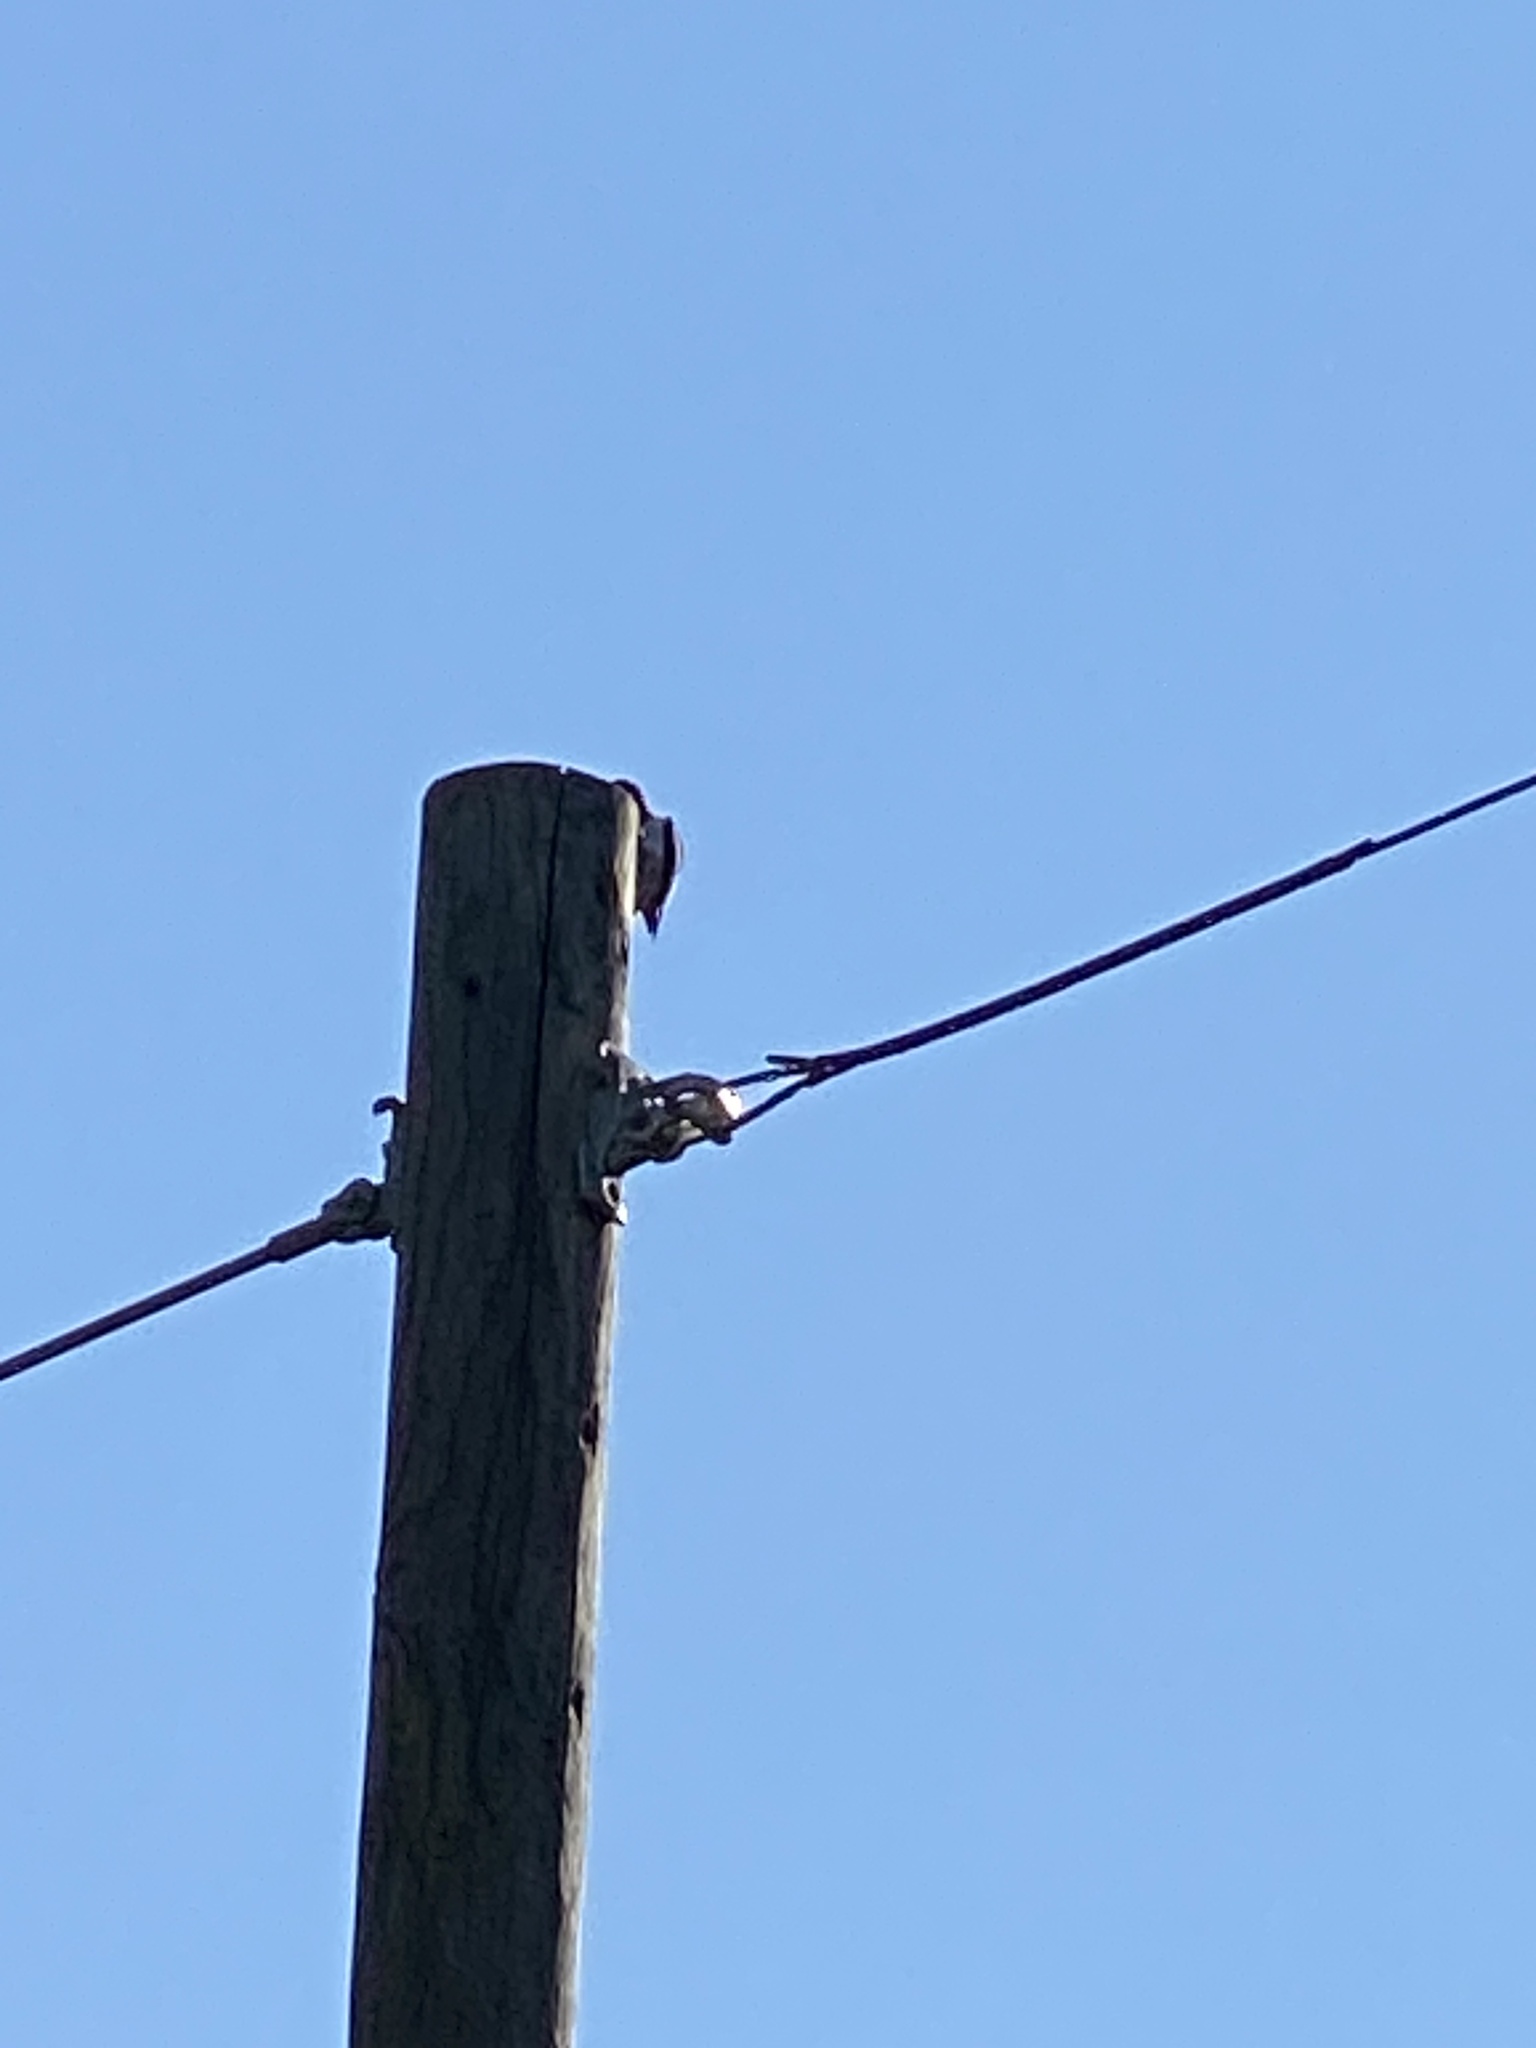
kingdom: Animalia
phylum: Chordata
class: Aves
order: Piciformes
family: Picidae
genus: Melanerpes
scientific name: Melanerpes erythrocephalus
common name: Red-headed woodpecker
